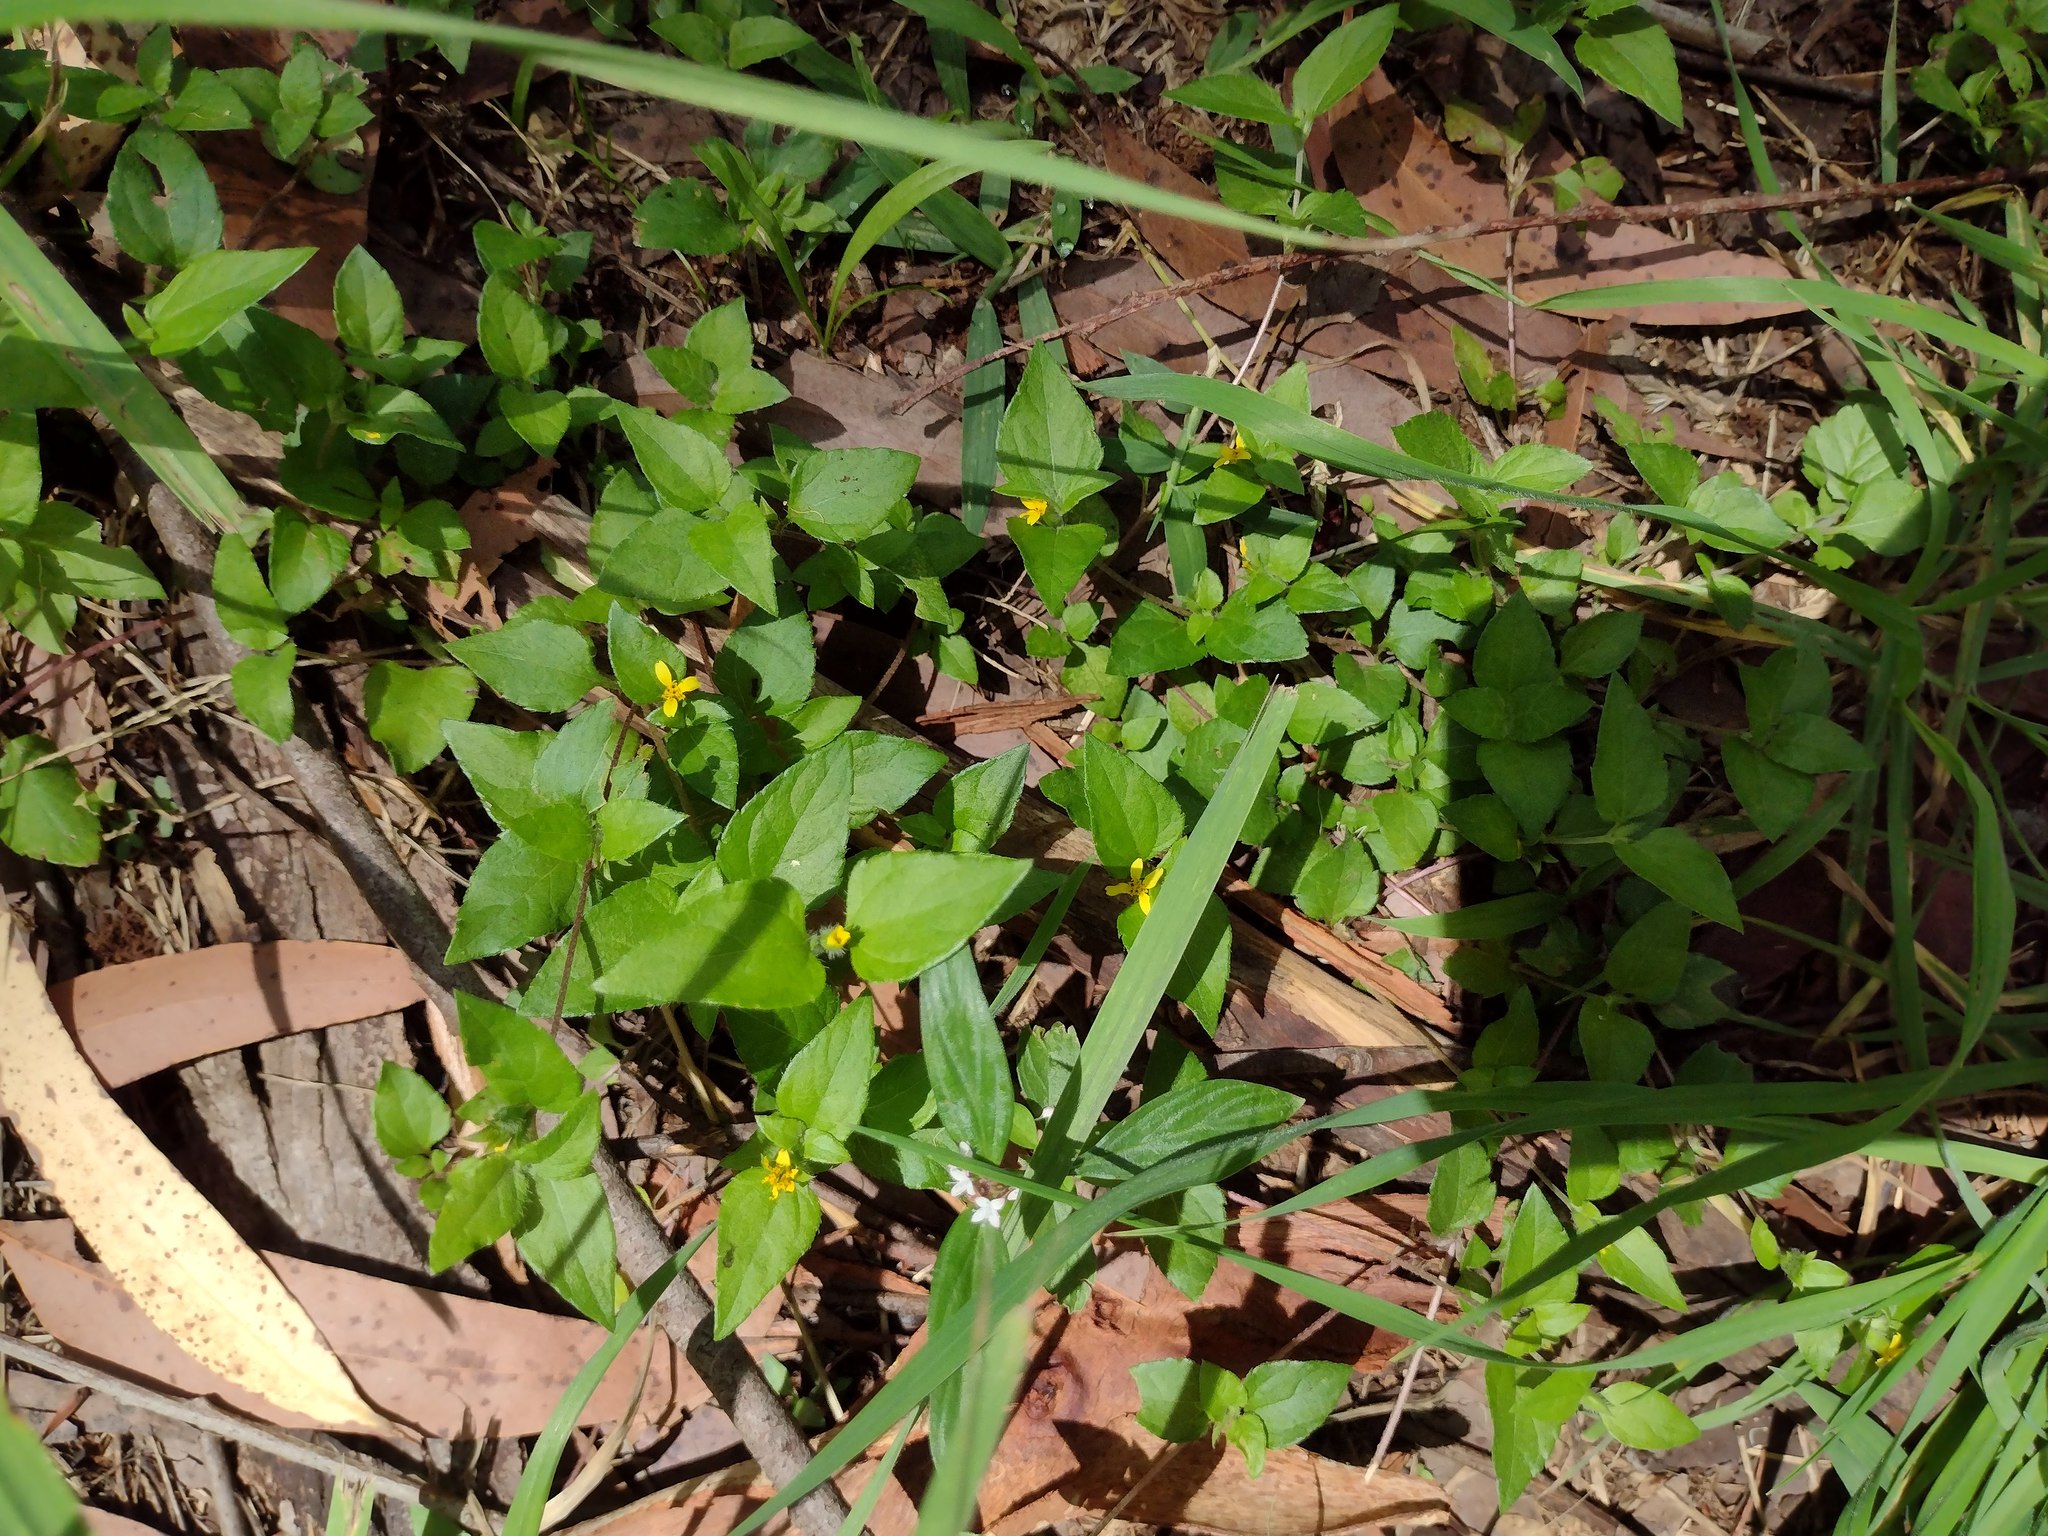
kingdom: Plantae
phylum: Tracheophyta
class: Magnoliopsida
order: Asterales
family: Asteraceae
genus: Calyptocarpus
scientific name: Calyptocarpus vialis
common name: Straggler daisy
